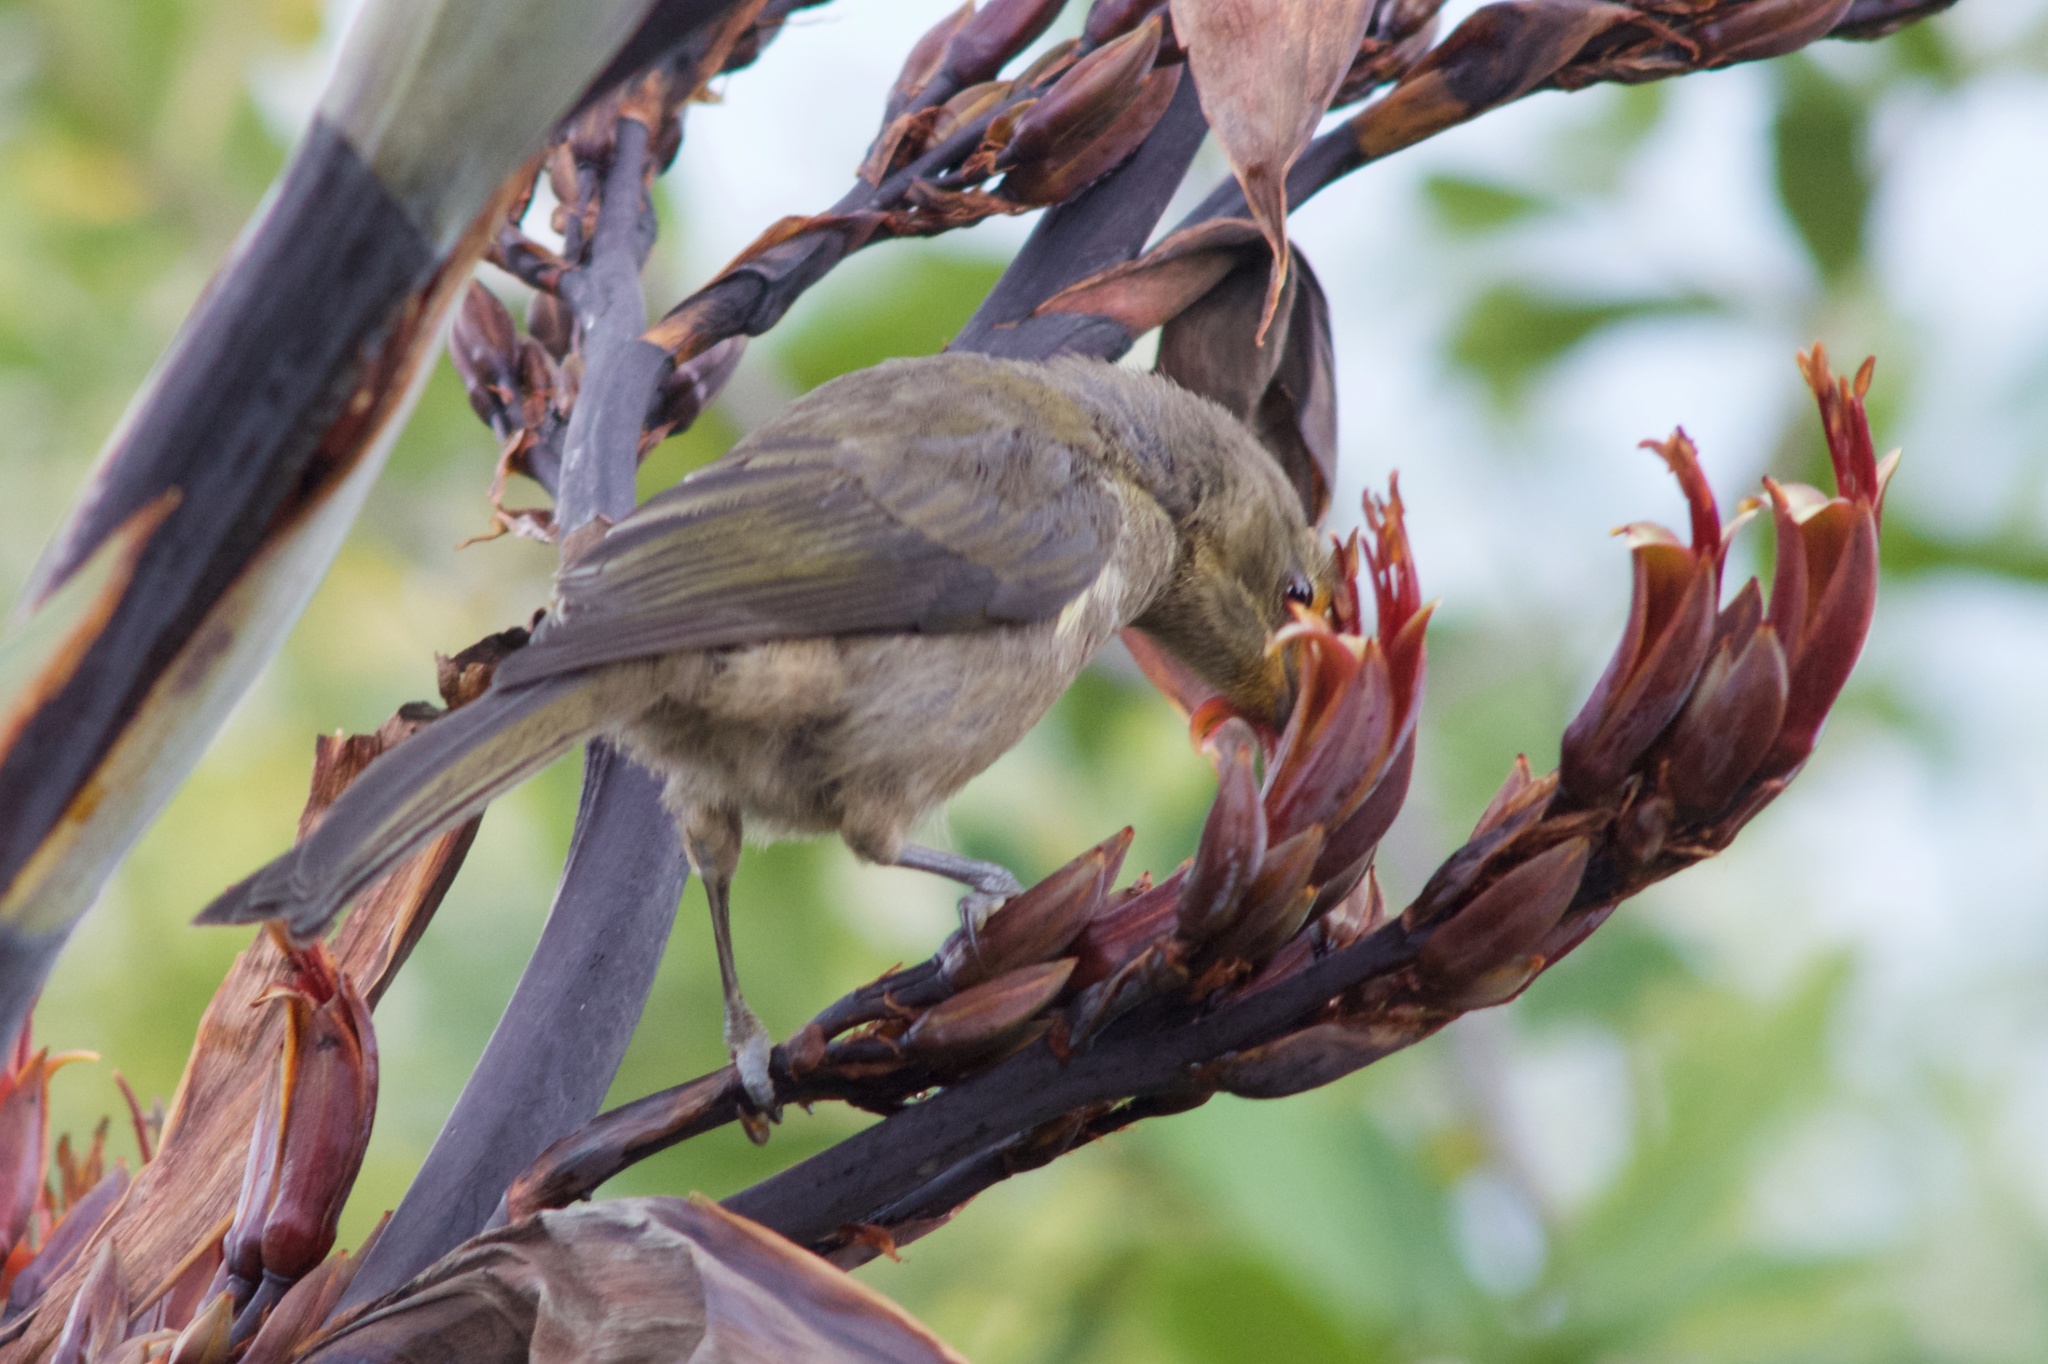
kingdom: Animalia
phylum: Chordata
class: Aves
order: Passeriformes
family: Meliphagidae
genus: Anthornis
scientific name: Anthornis melanura
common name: New zealand bellbird
